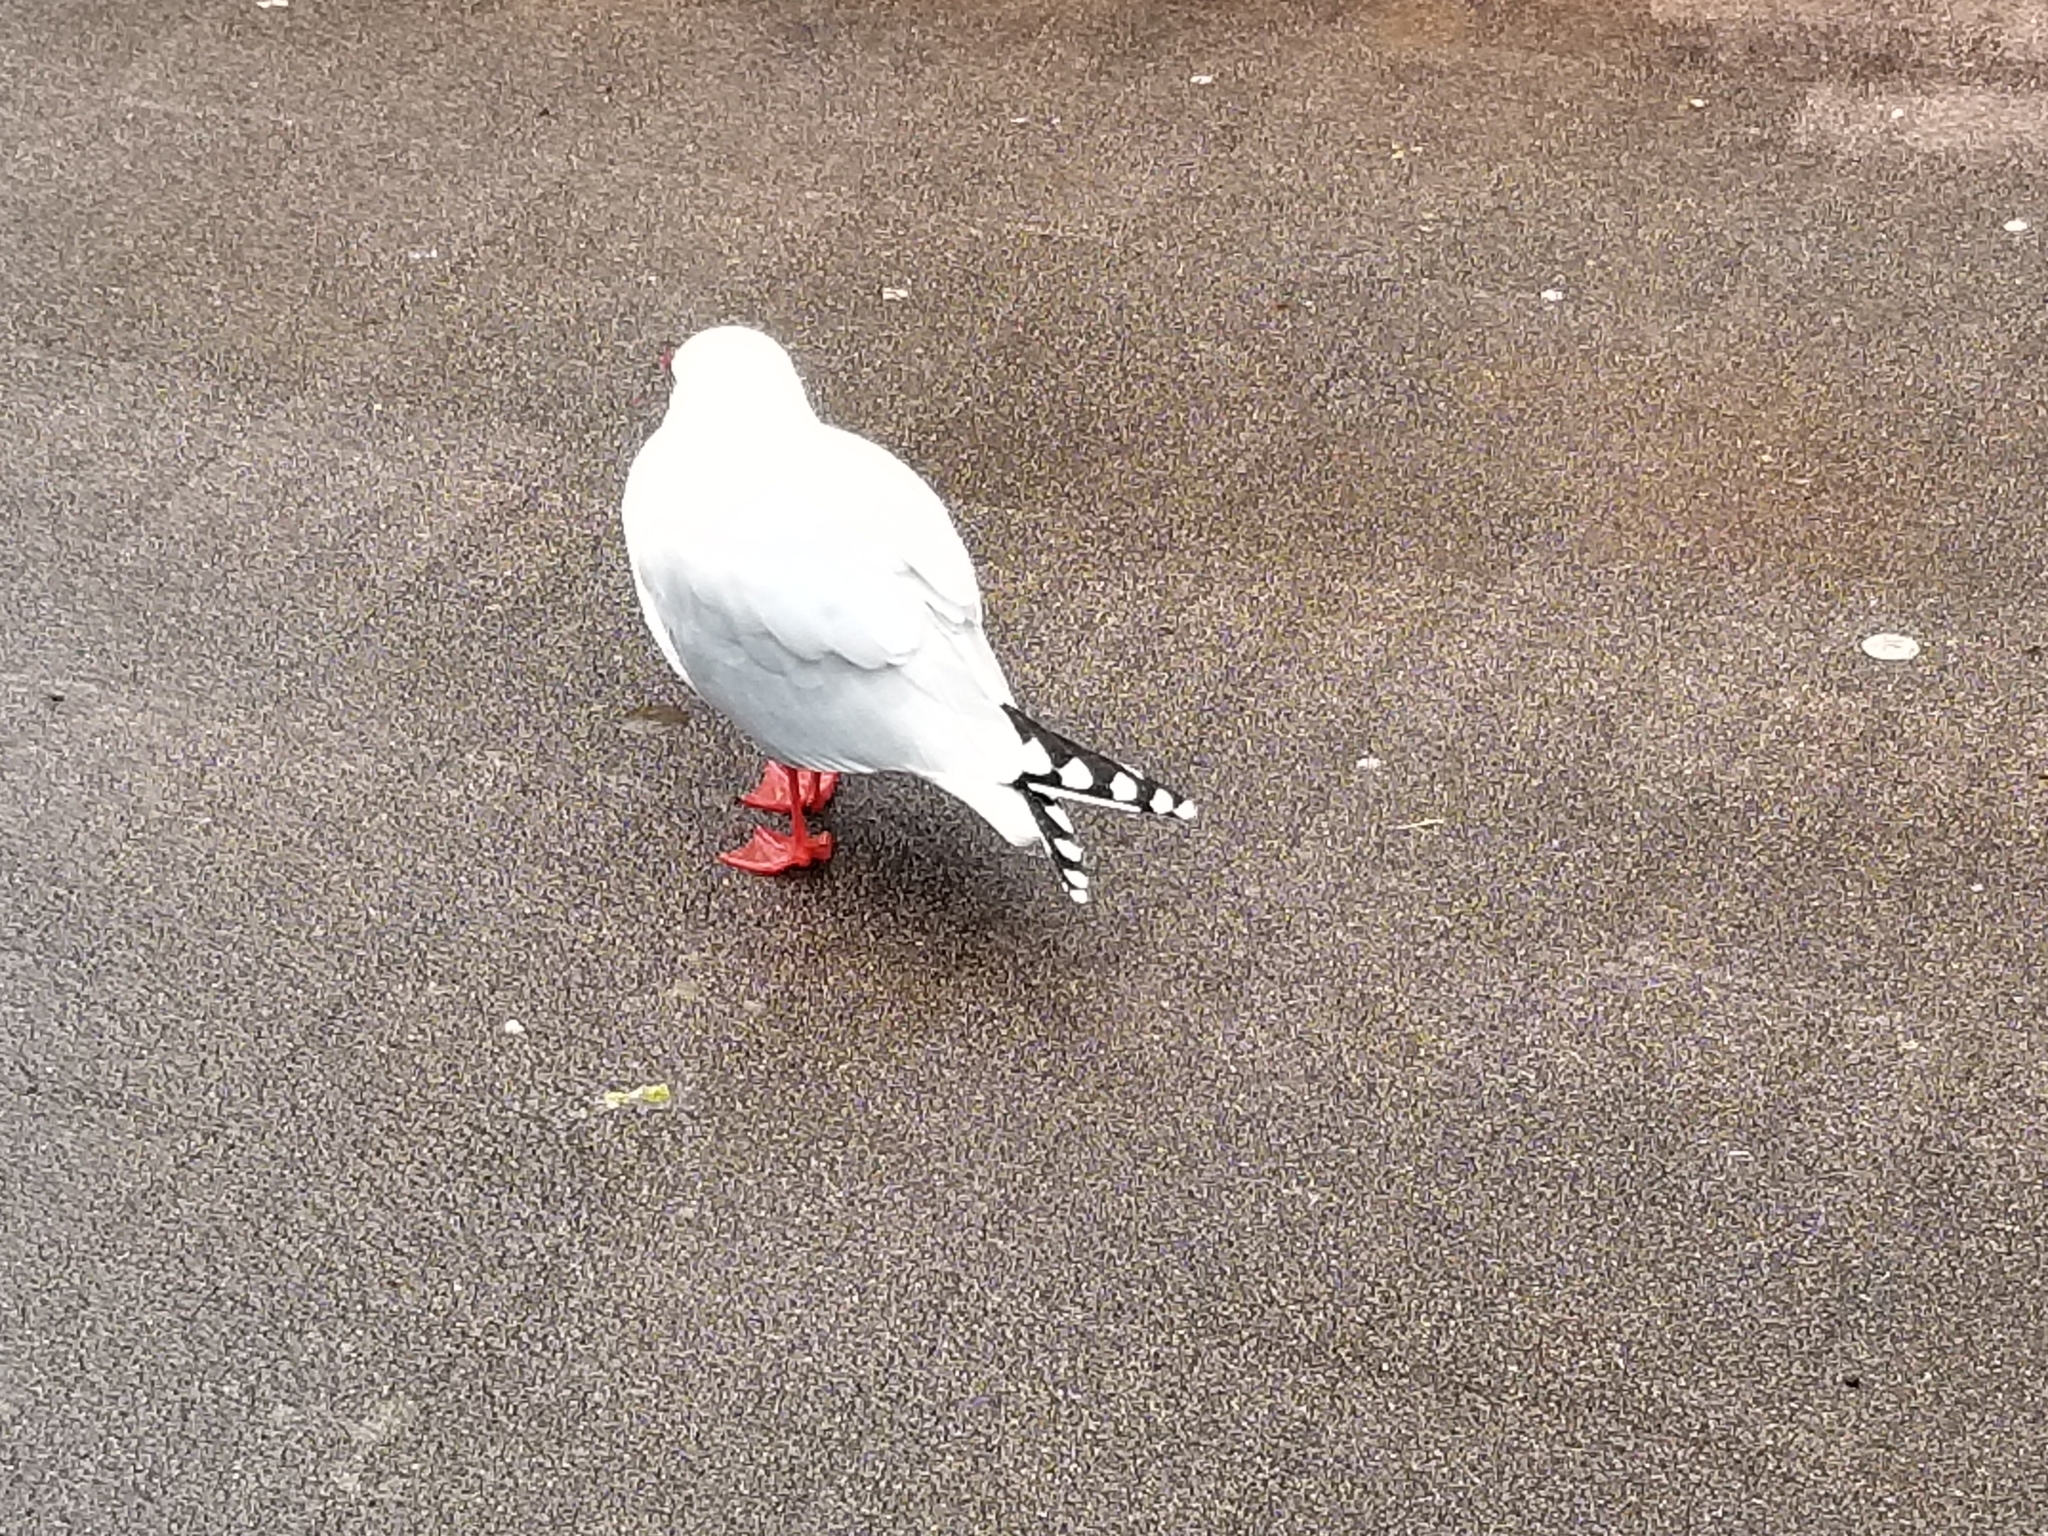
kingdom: Animalia
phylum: Chordata
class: Aves
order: Charadriiformes
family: Laridae
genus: Chroicocephalus
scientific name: Chroicocephalus novaehollandiae
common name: Silver gull
